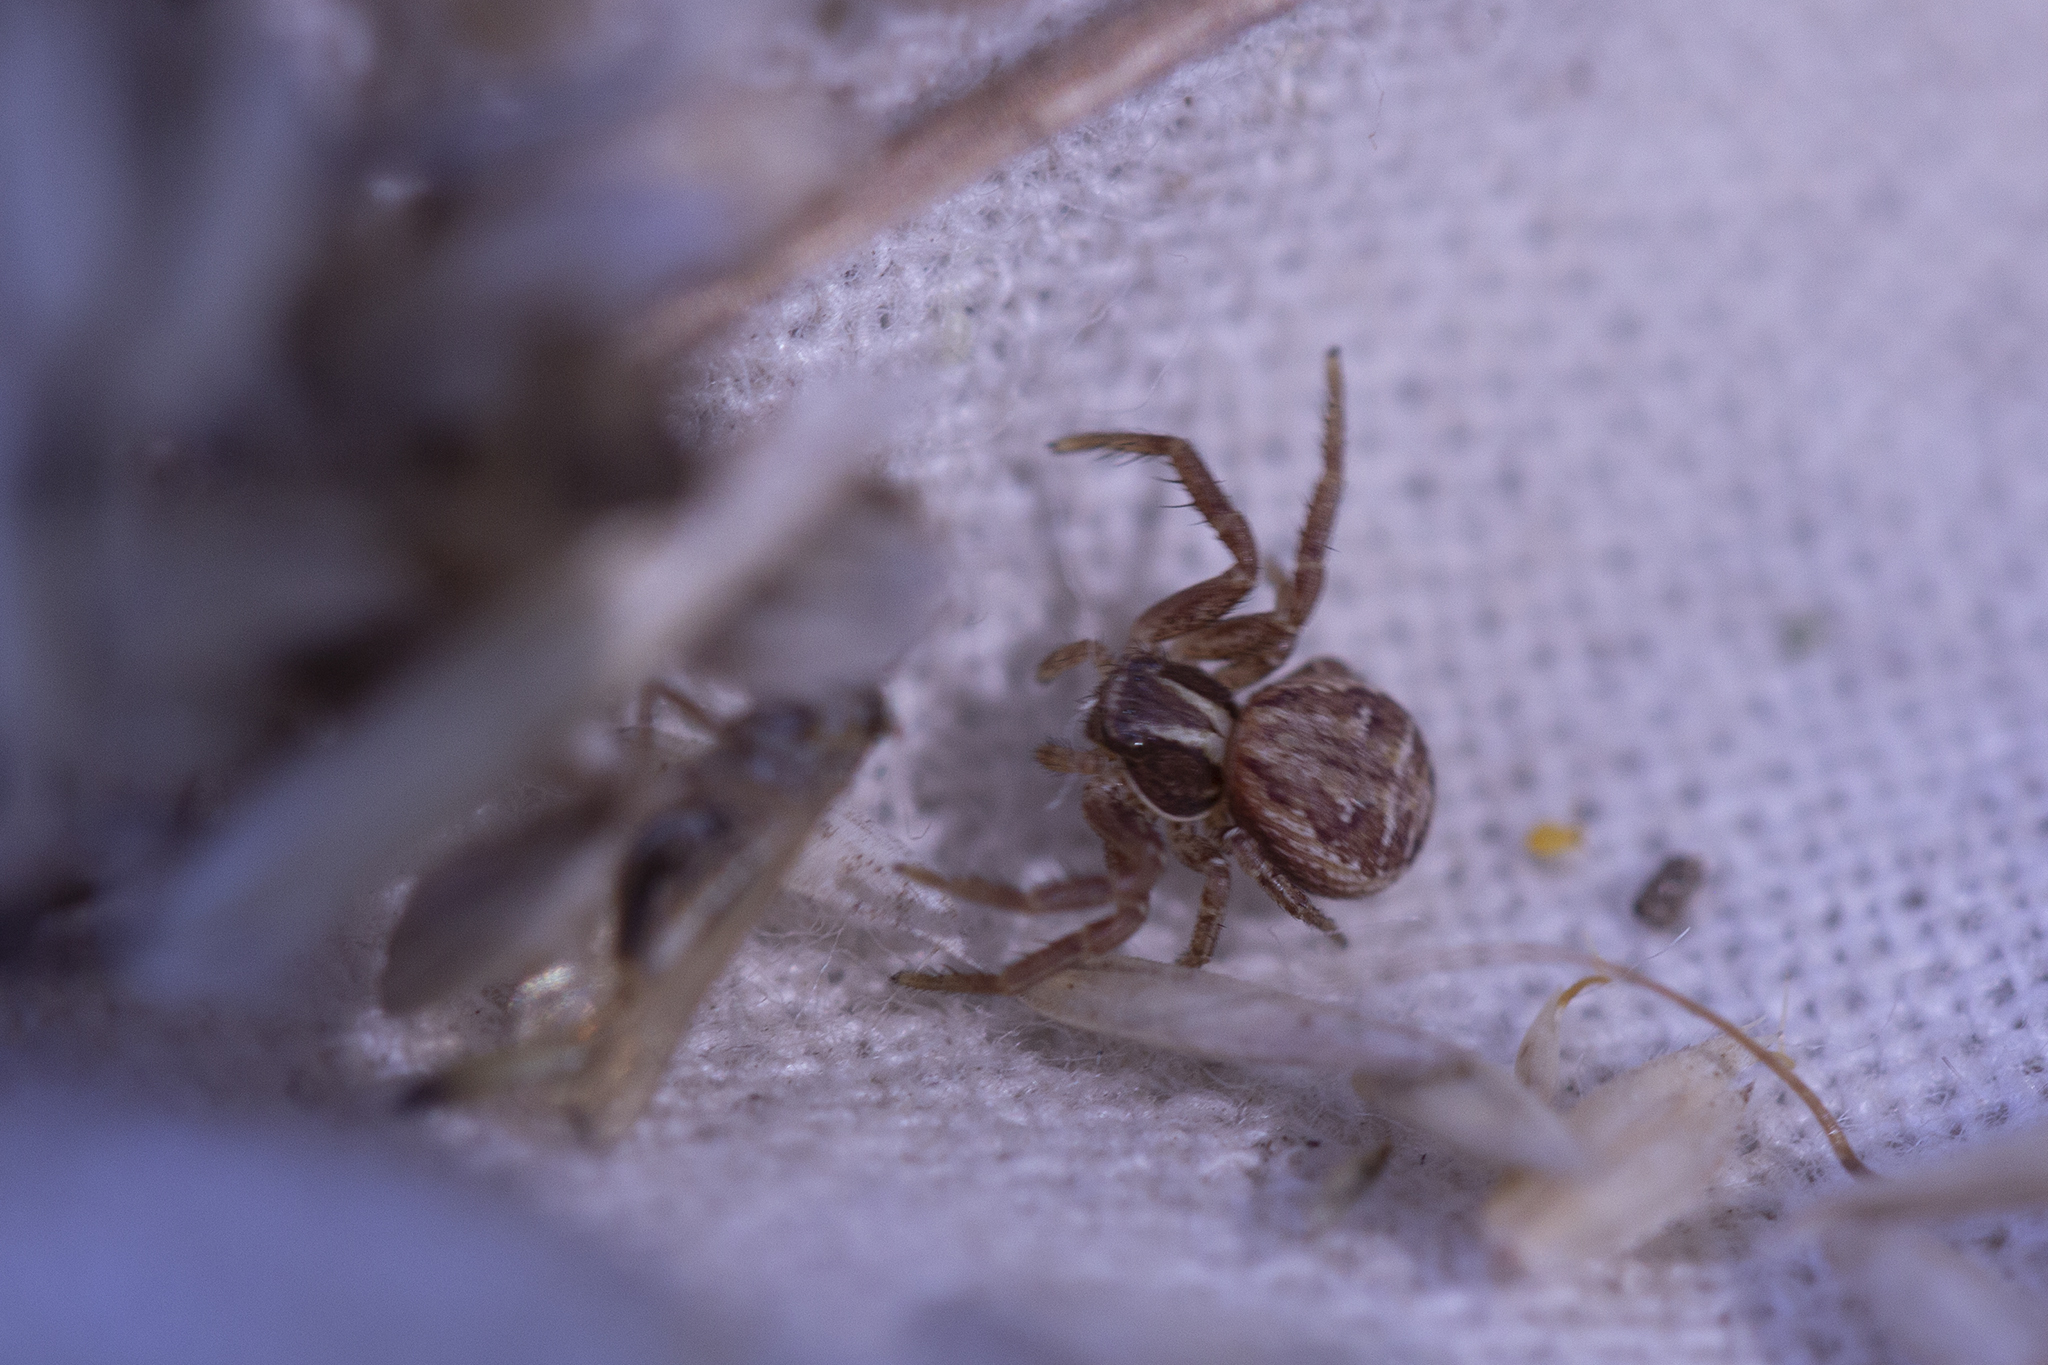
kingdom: Animalia
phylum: Arthropoda
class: Arachnida
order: Araneae
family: Thomisidae
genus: Xysticus
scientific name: Xysticus
